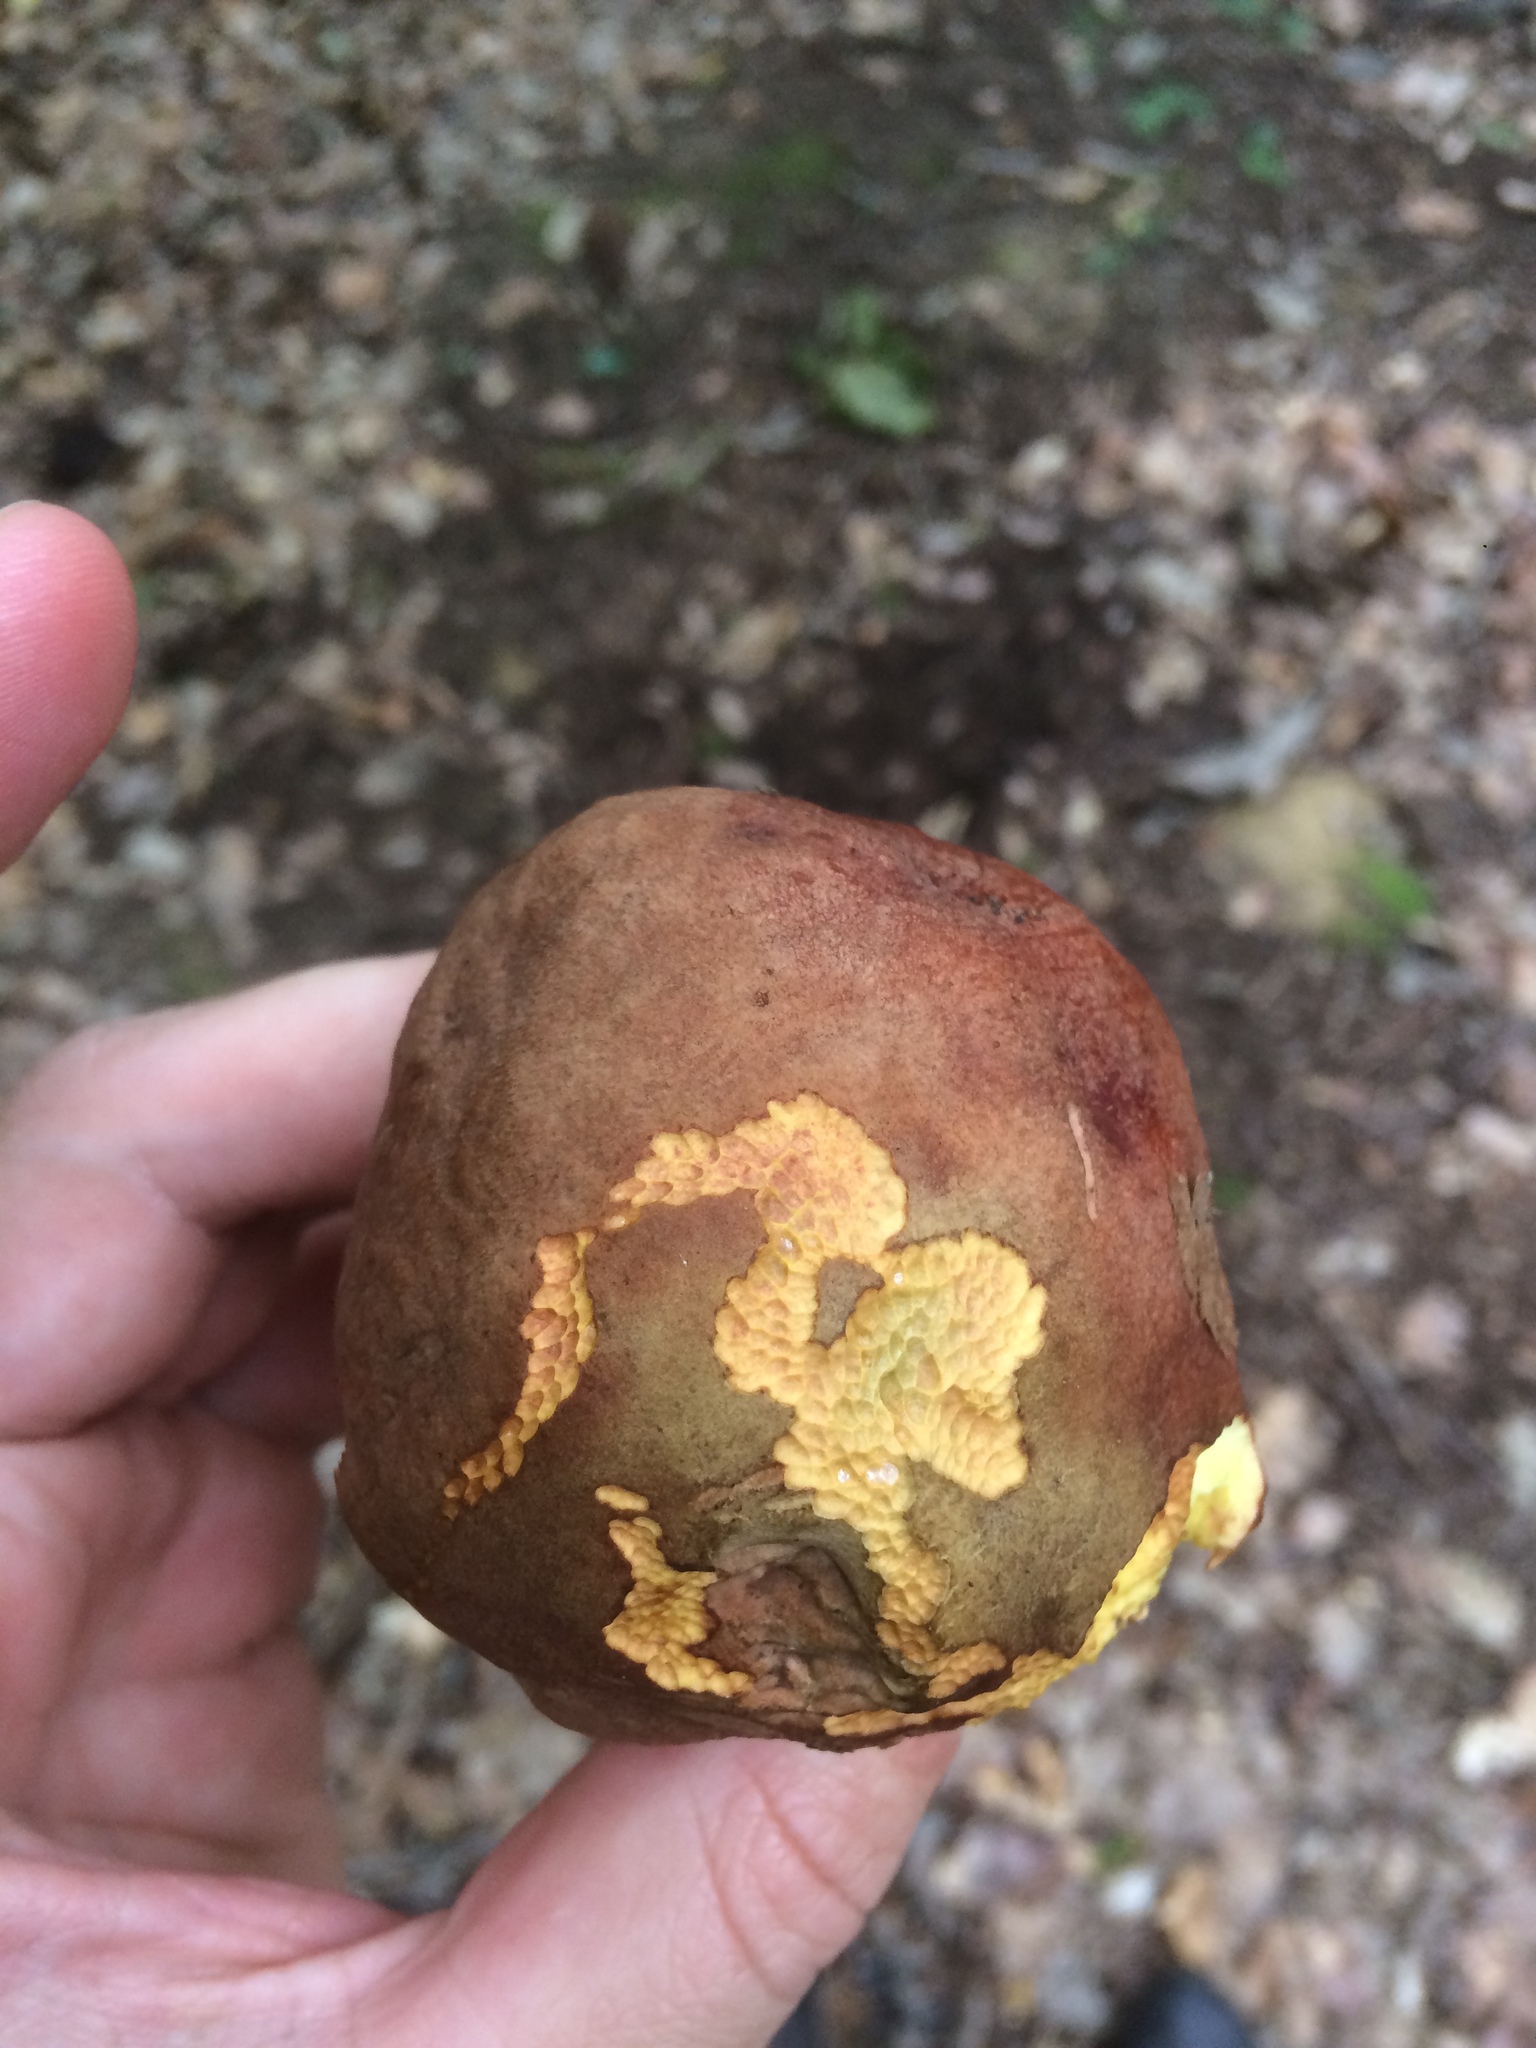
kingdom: Fungi
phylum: Basidiomycota
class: Agaricomycetes
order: Boletales
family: Boletaceae
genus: Butyriboletus
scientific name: Butyriboletus fuscoroseus
